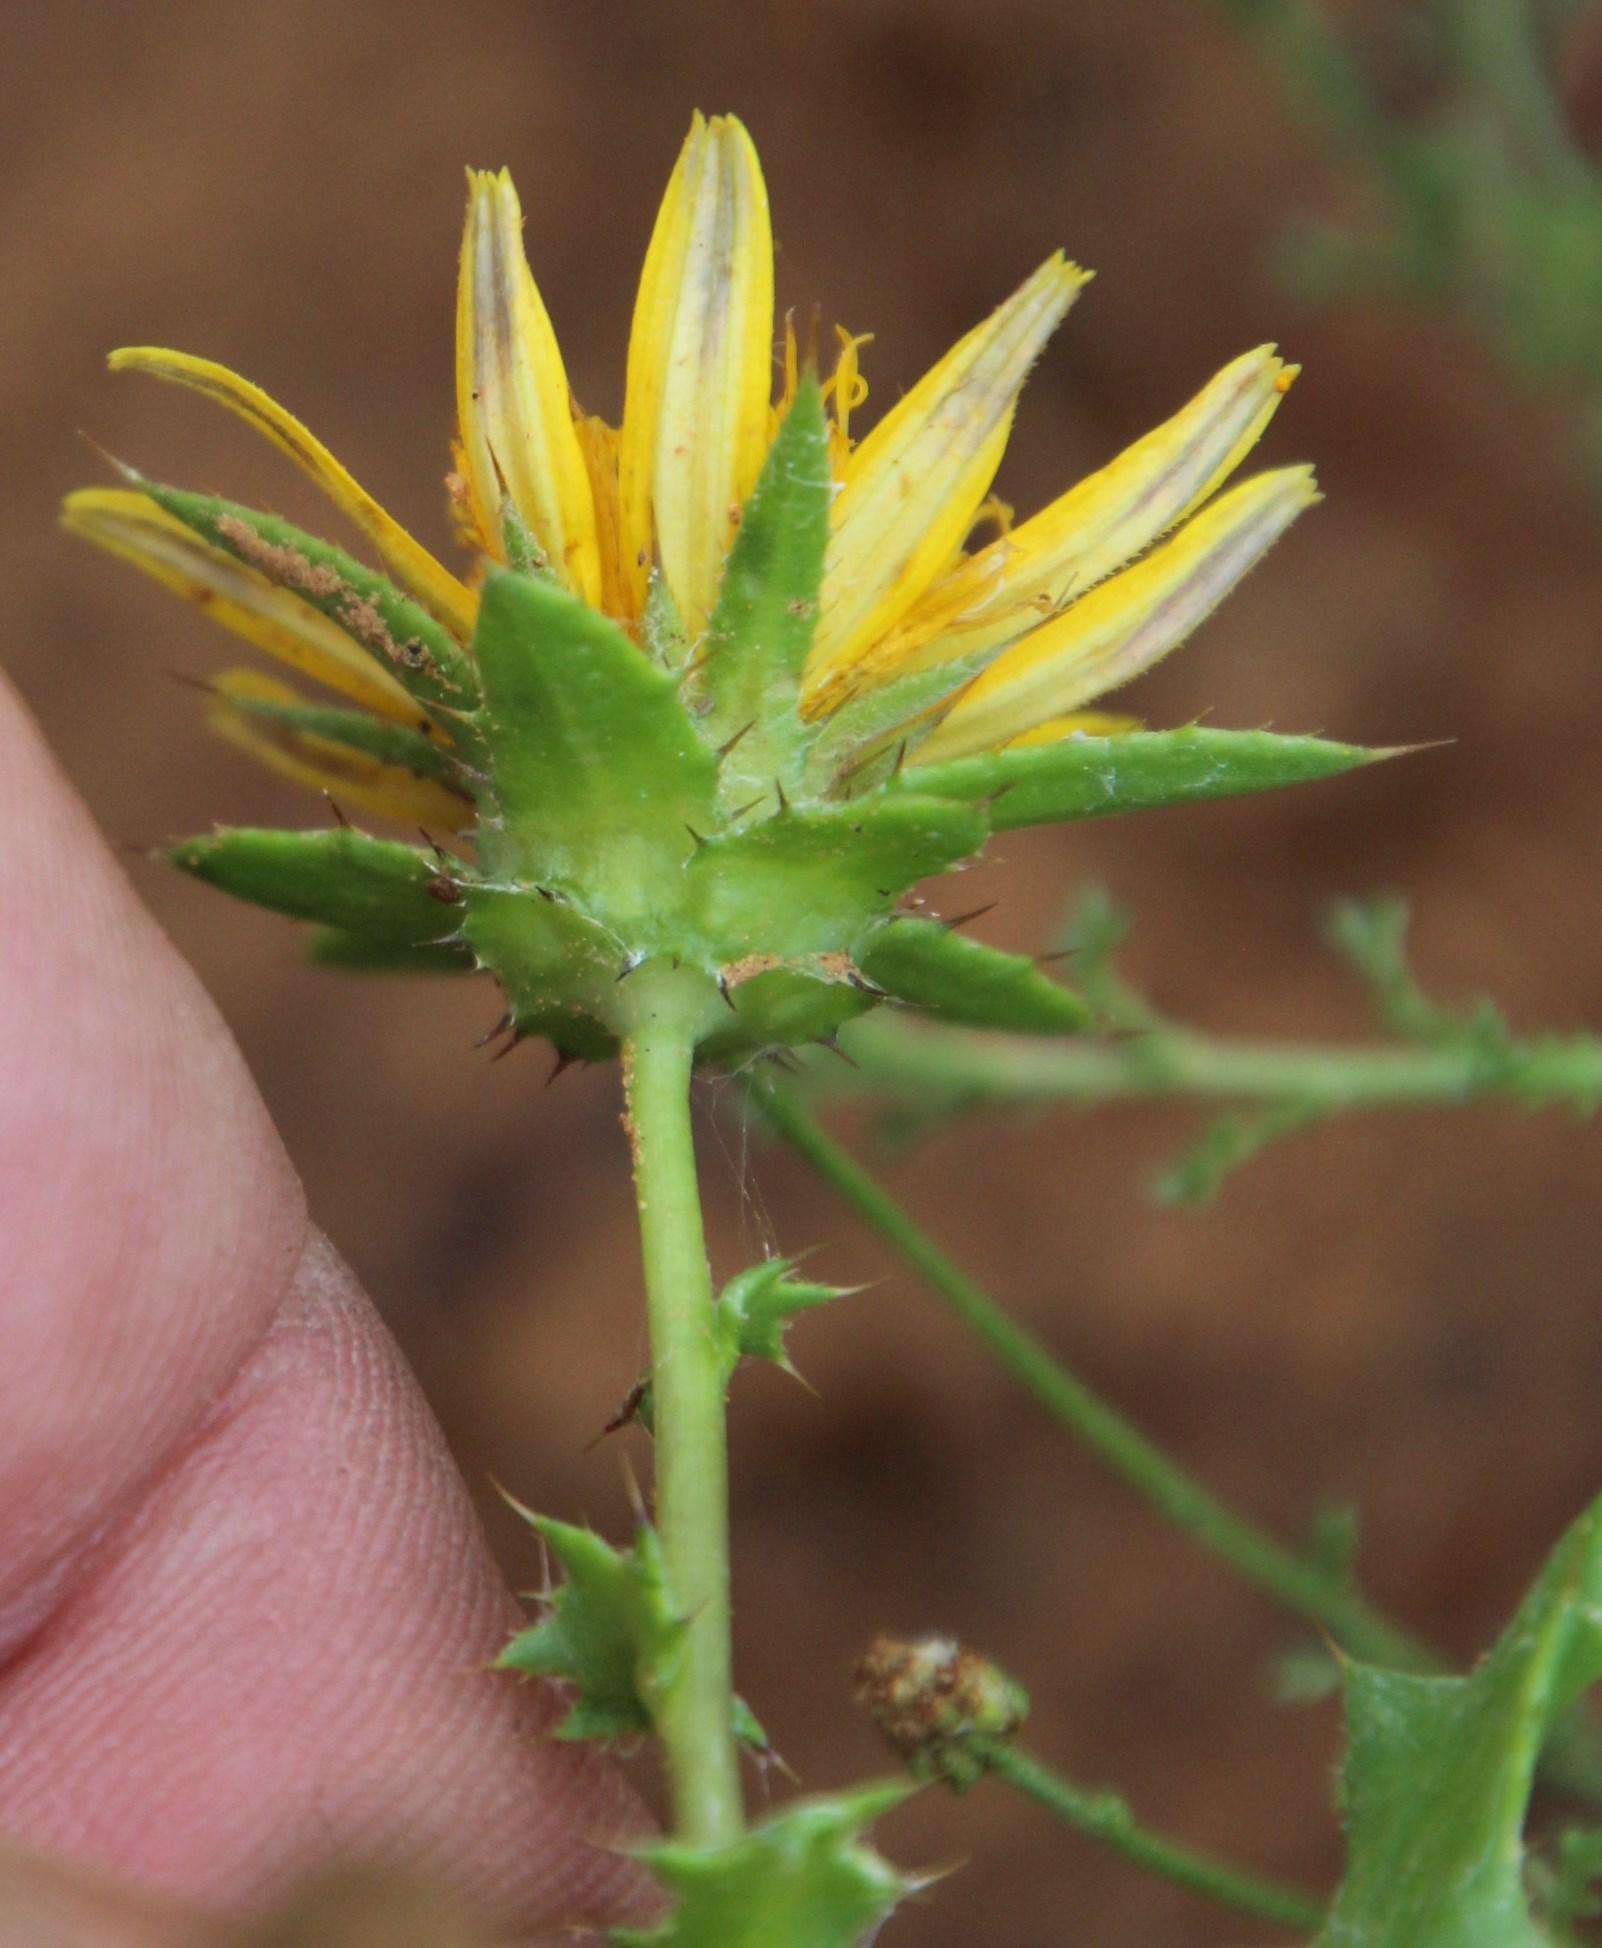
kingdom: Plantae
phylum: Tracheophyta
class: Magnoliopsida
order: Asterales
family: Asteraceae
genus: Cuspidia
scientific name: Cuspidia cernua
